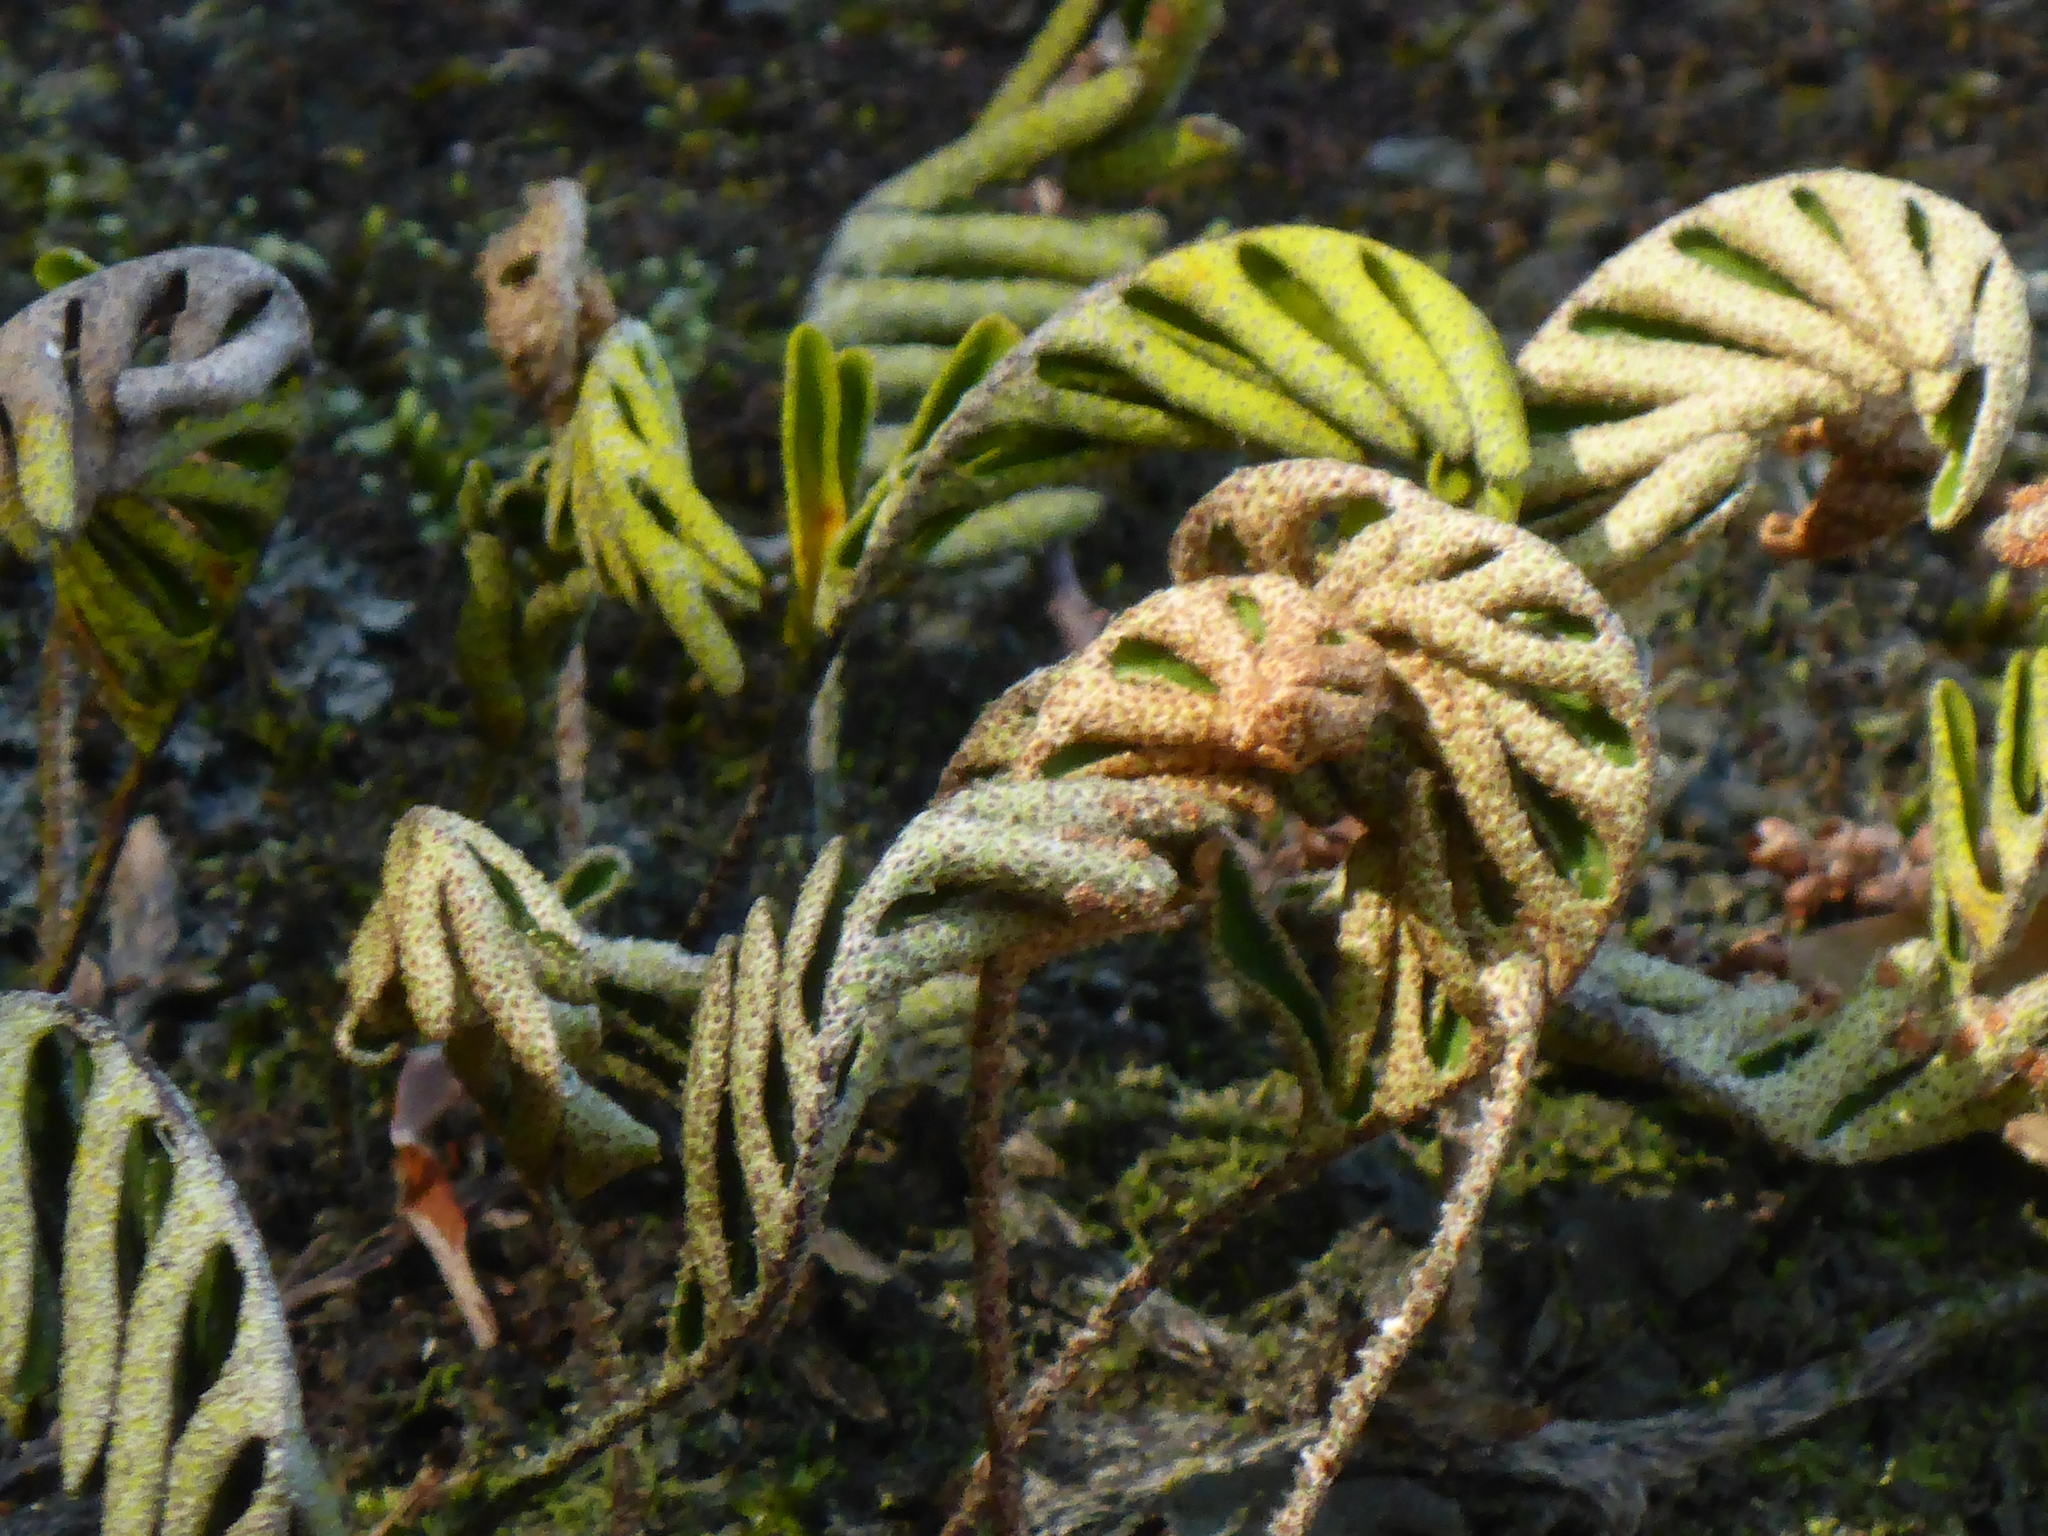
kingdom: Plantae
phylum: Tracheophyta
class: Polypodiopsida
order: Polypodiales
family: Polypodiaceae
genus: Pleopeltis
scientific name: Pleopeltis michauxiana
